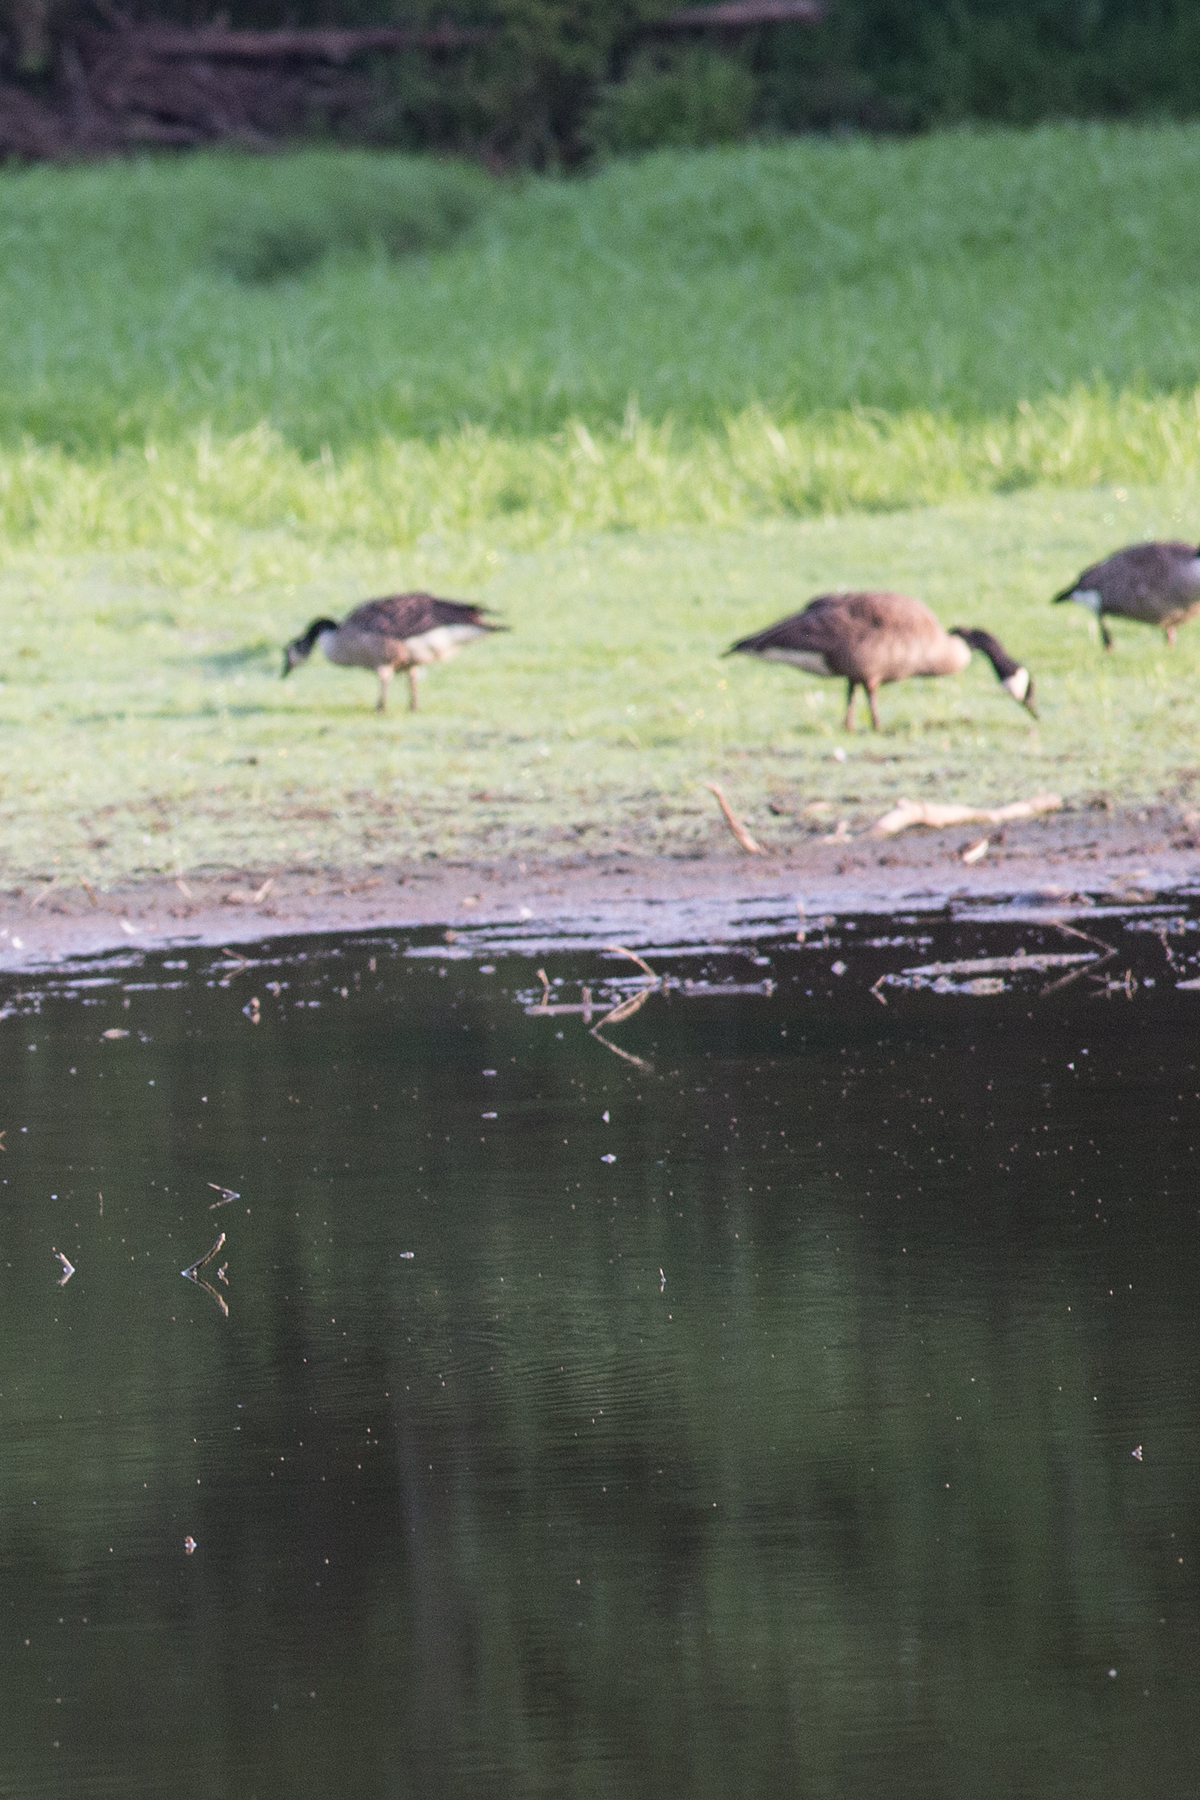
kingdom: Animalia
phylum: Chordata
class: Aves
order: Anseriformes
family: Anatidae
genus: Branta
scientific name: Branta canadensis
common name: Canada goose
